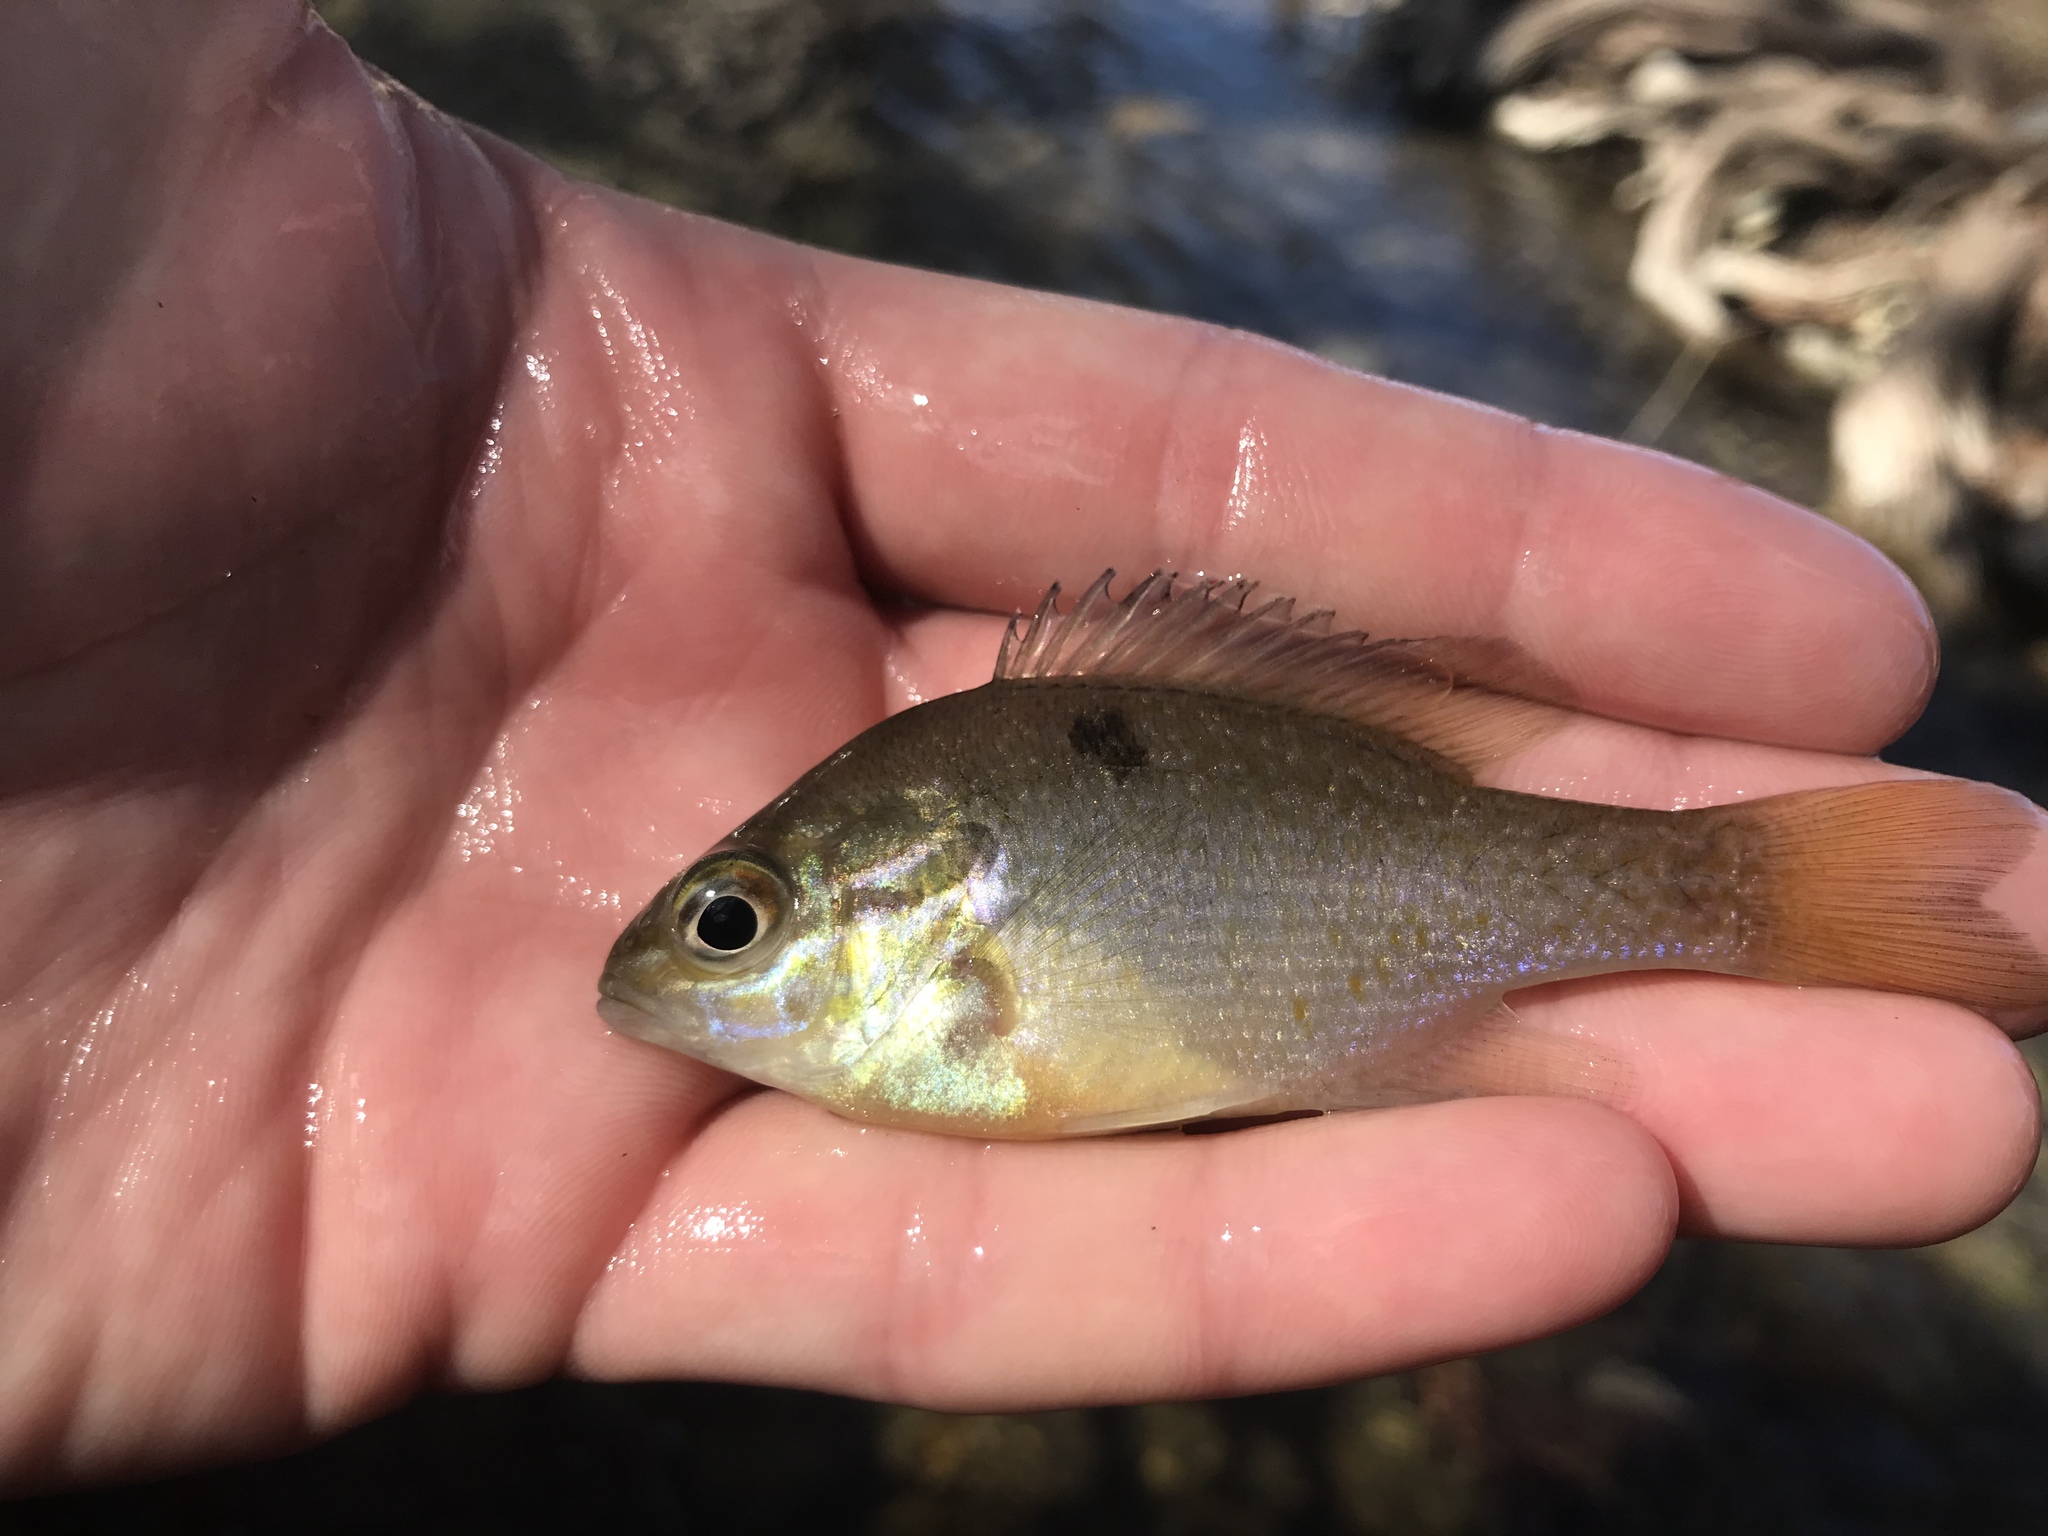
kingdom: Animalia
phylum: Chordata
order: Perciformes
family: Centrarchidae
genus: Lepomis
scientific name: Lepomis auritus
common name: Redbreast sunfish
